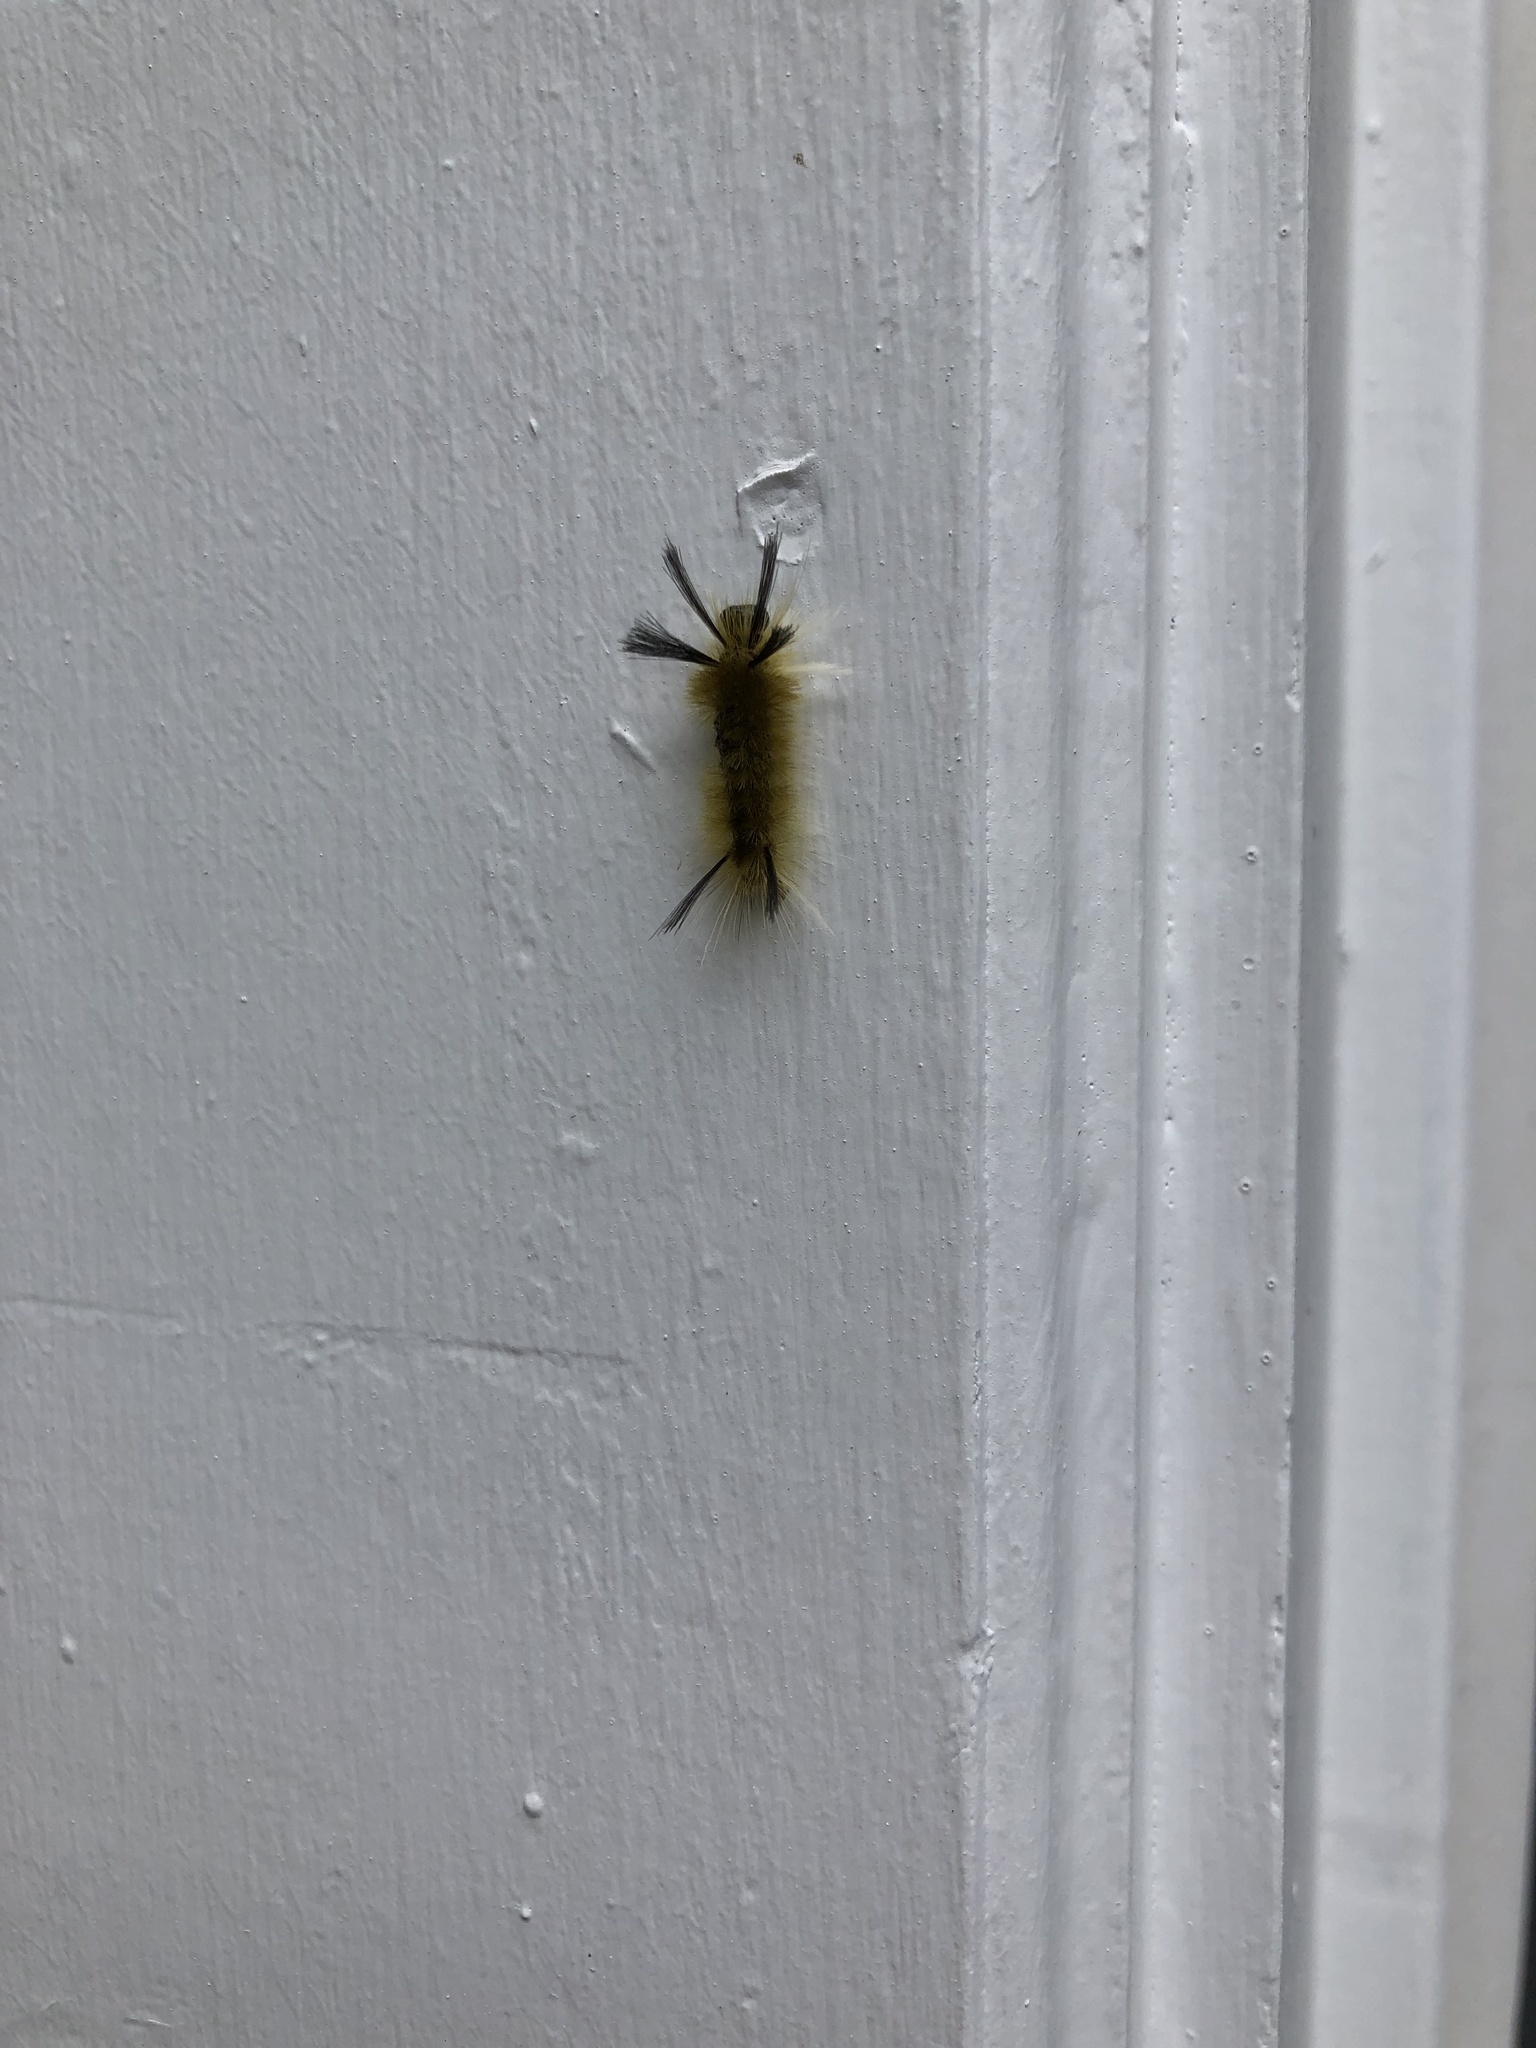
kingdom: Animalia
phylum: Arthropoda
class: Insecta
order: Lepidoptera
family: Erebidae
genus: Halysidota
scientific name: Halysidota tessellaris
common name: Banded tussock moth
